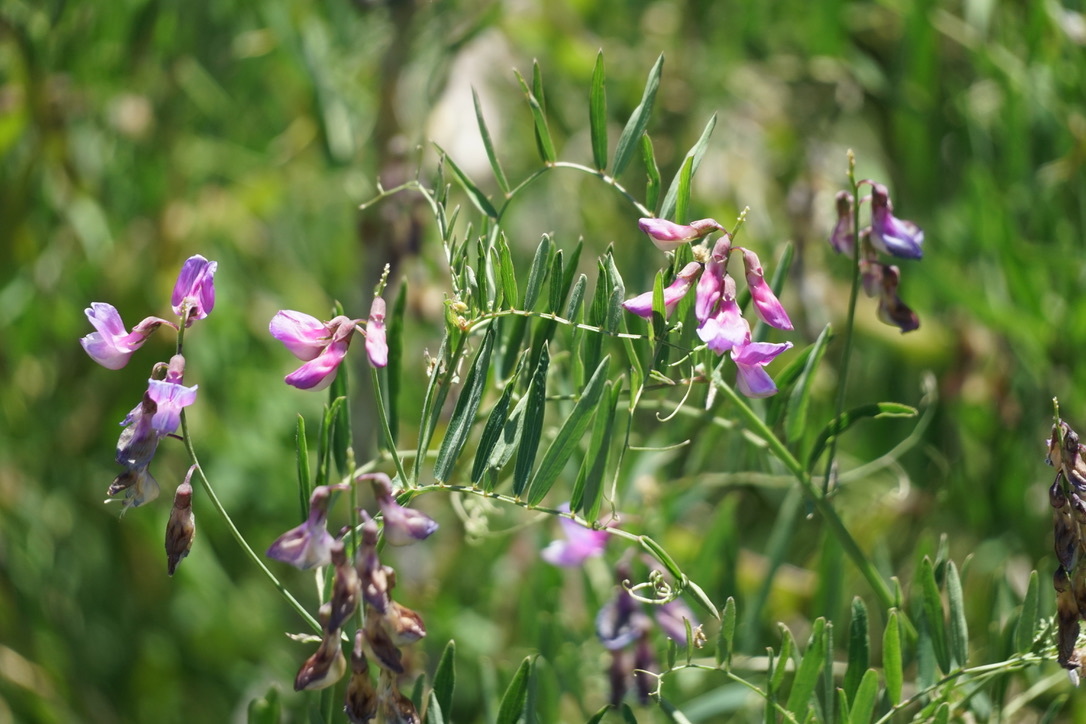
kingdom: Plantae
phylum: Tracheophyta
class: Magnoliopsida
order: Fabales
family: Fabaceae
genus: Lathyrus
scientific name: Lathyrus vestitus
